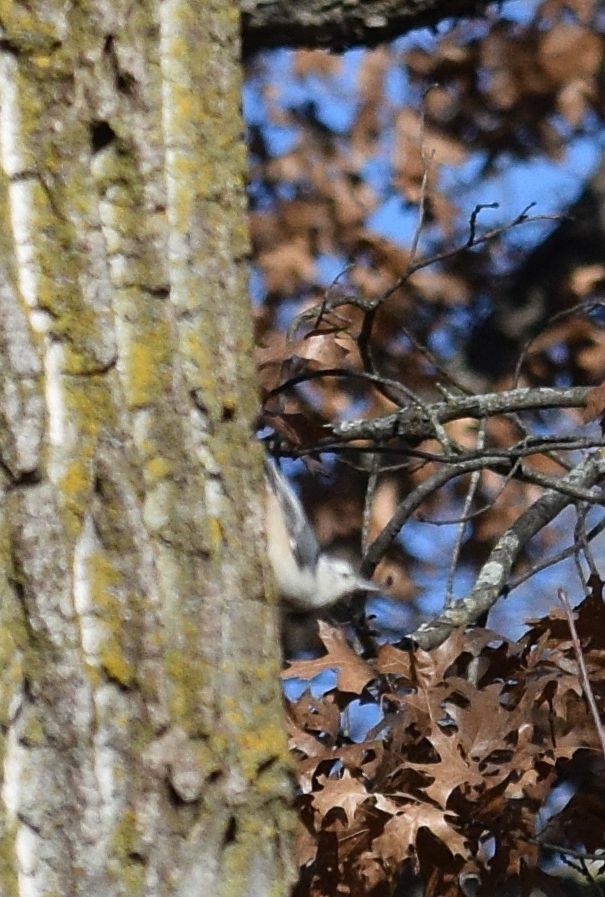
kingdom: Animalia
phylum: Chordata
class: Aves
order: Passeriformes
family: Sittidae
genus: Sitta
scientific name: Sitta carolinensis
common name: White-breasted nuthatch
